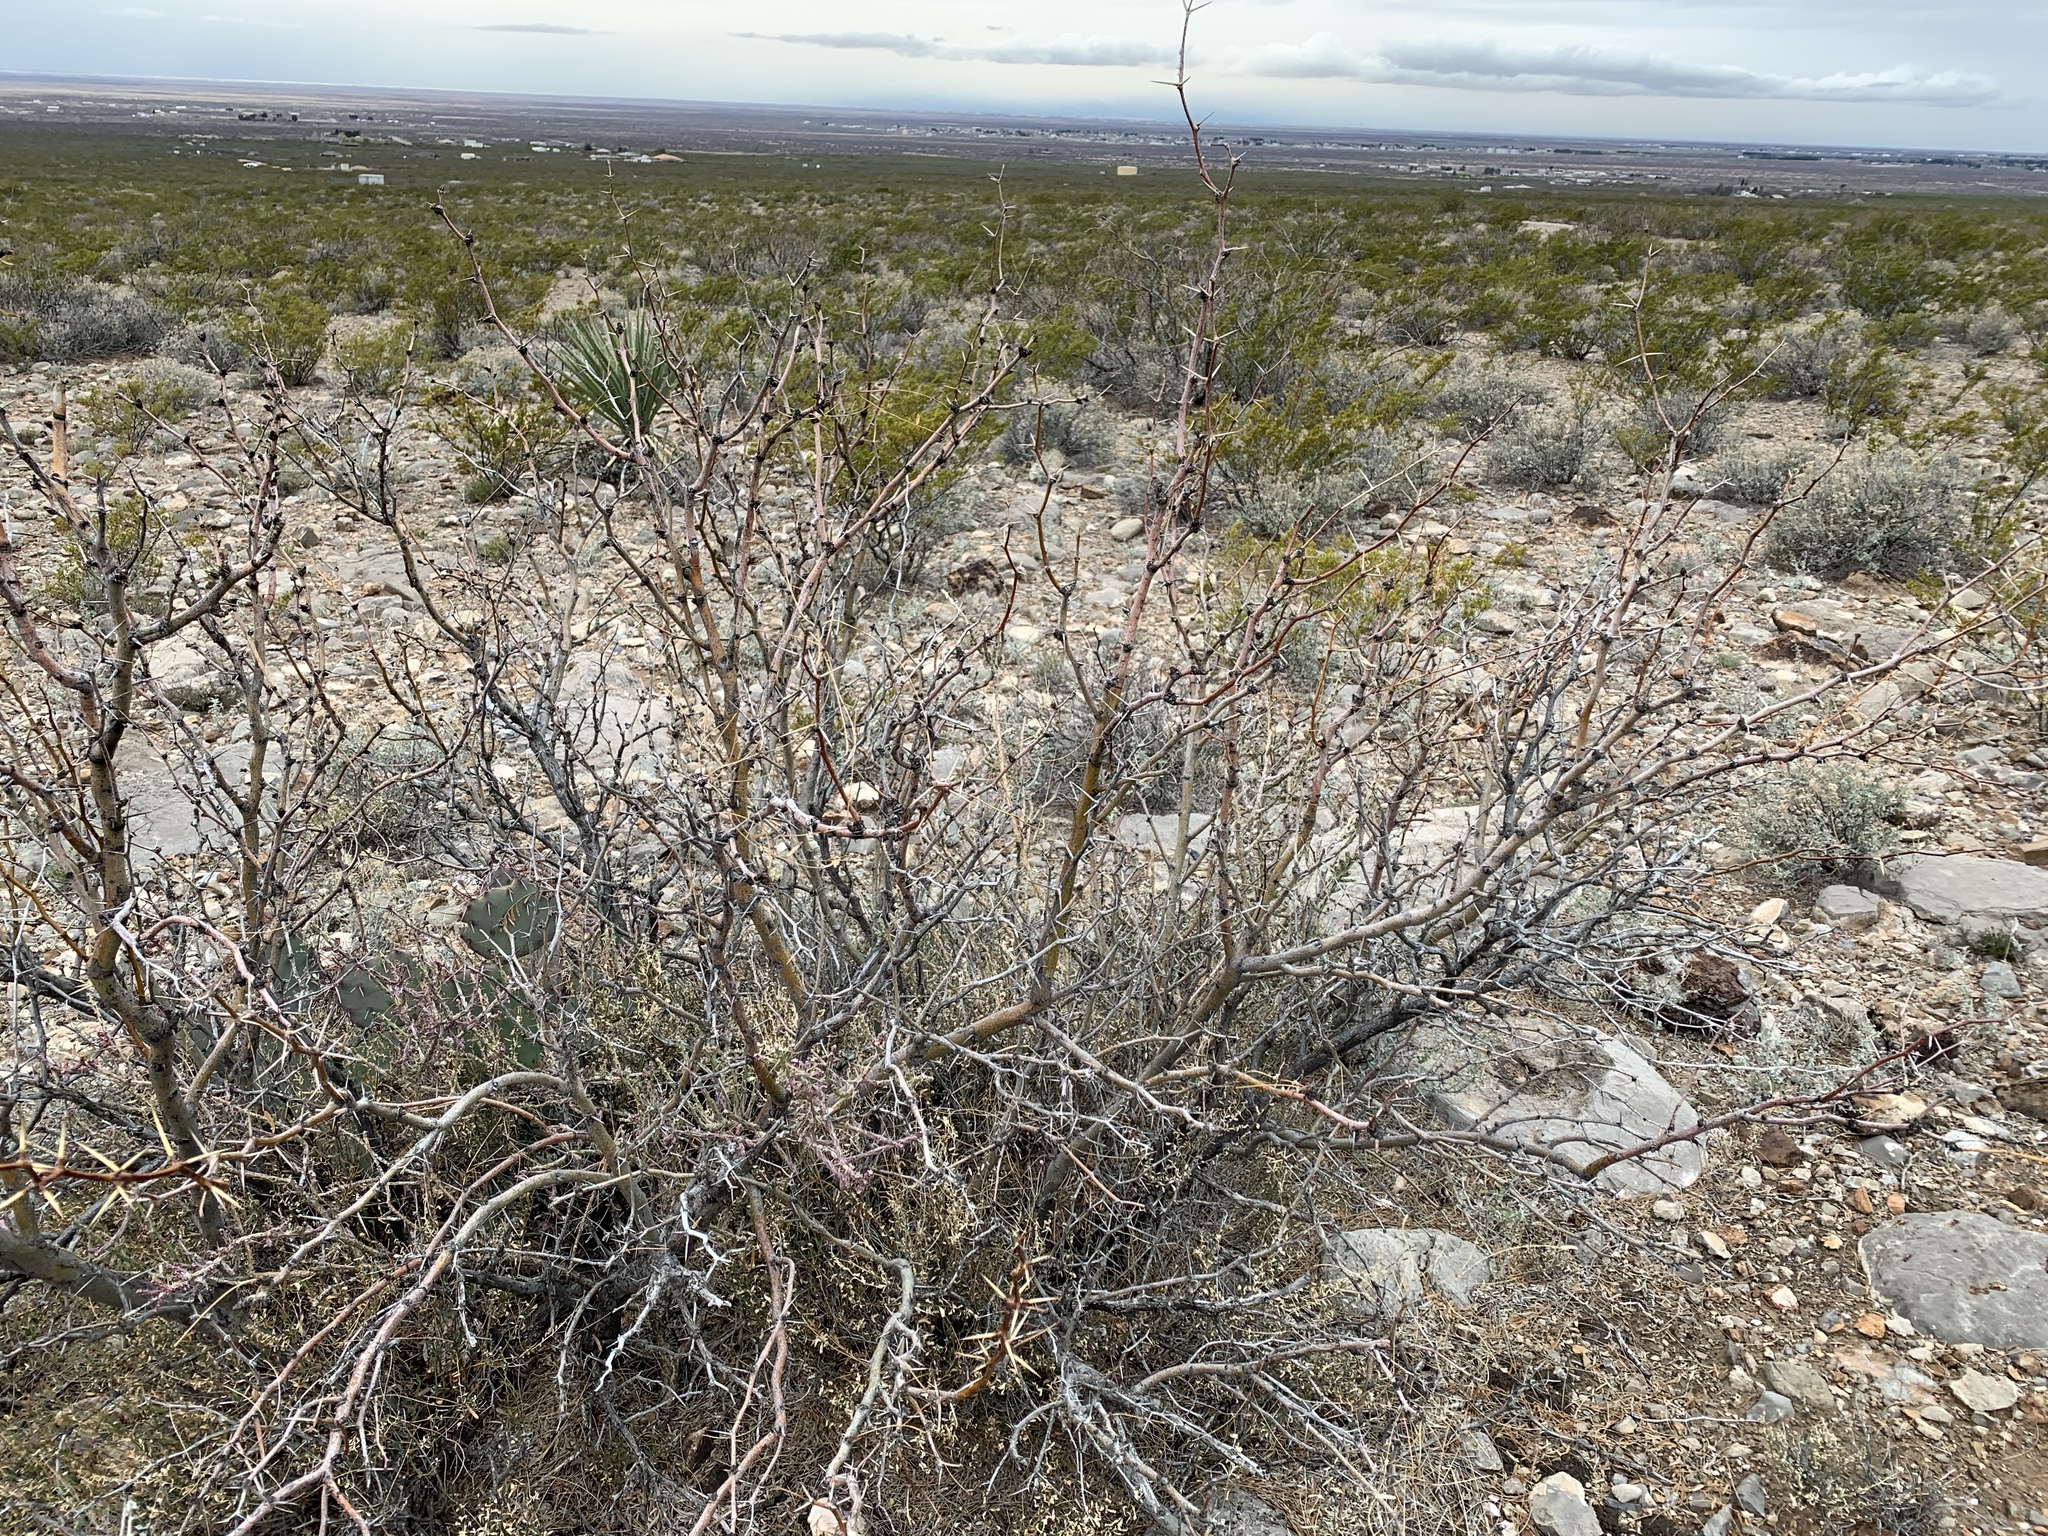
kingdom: Plantae
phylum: Tracheophyta
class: Magnoliopsida
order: Fabales
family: Fabaceae
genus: Prosopis
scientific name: Prosopis glandulosa
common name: Honey mesquite
